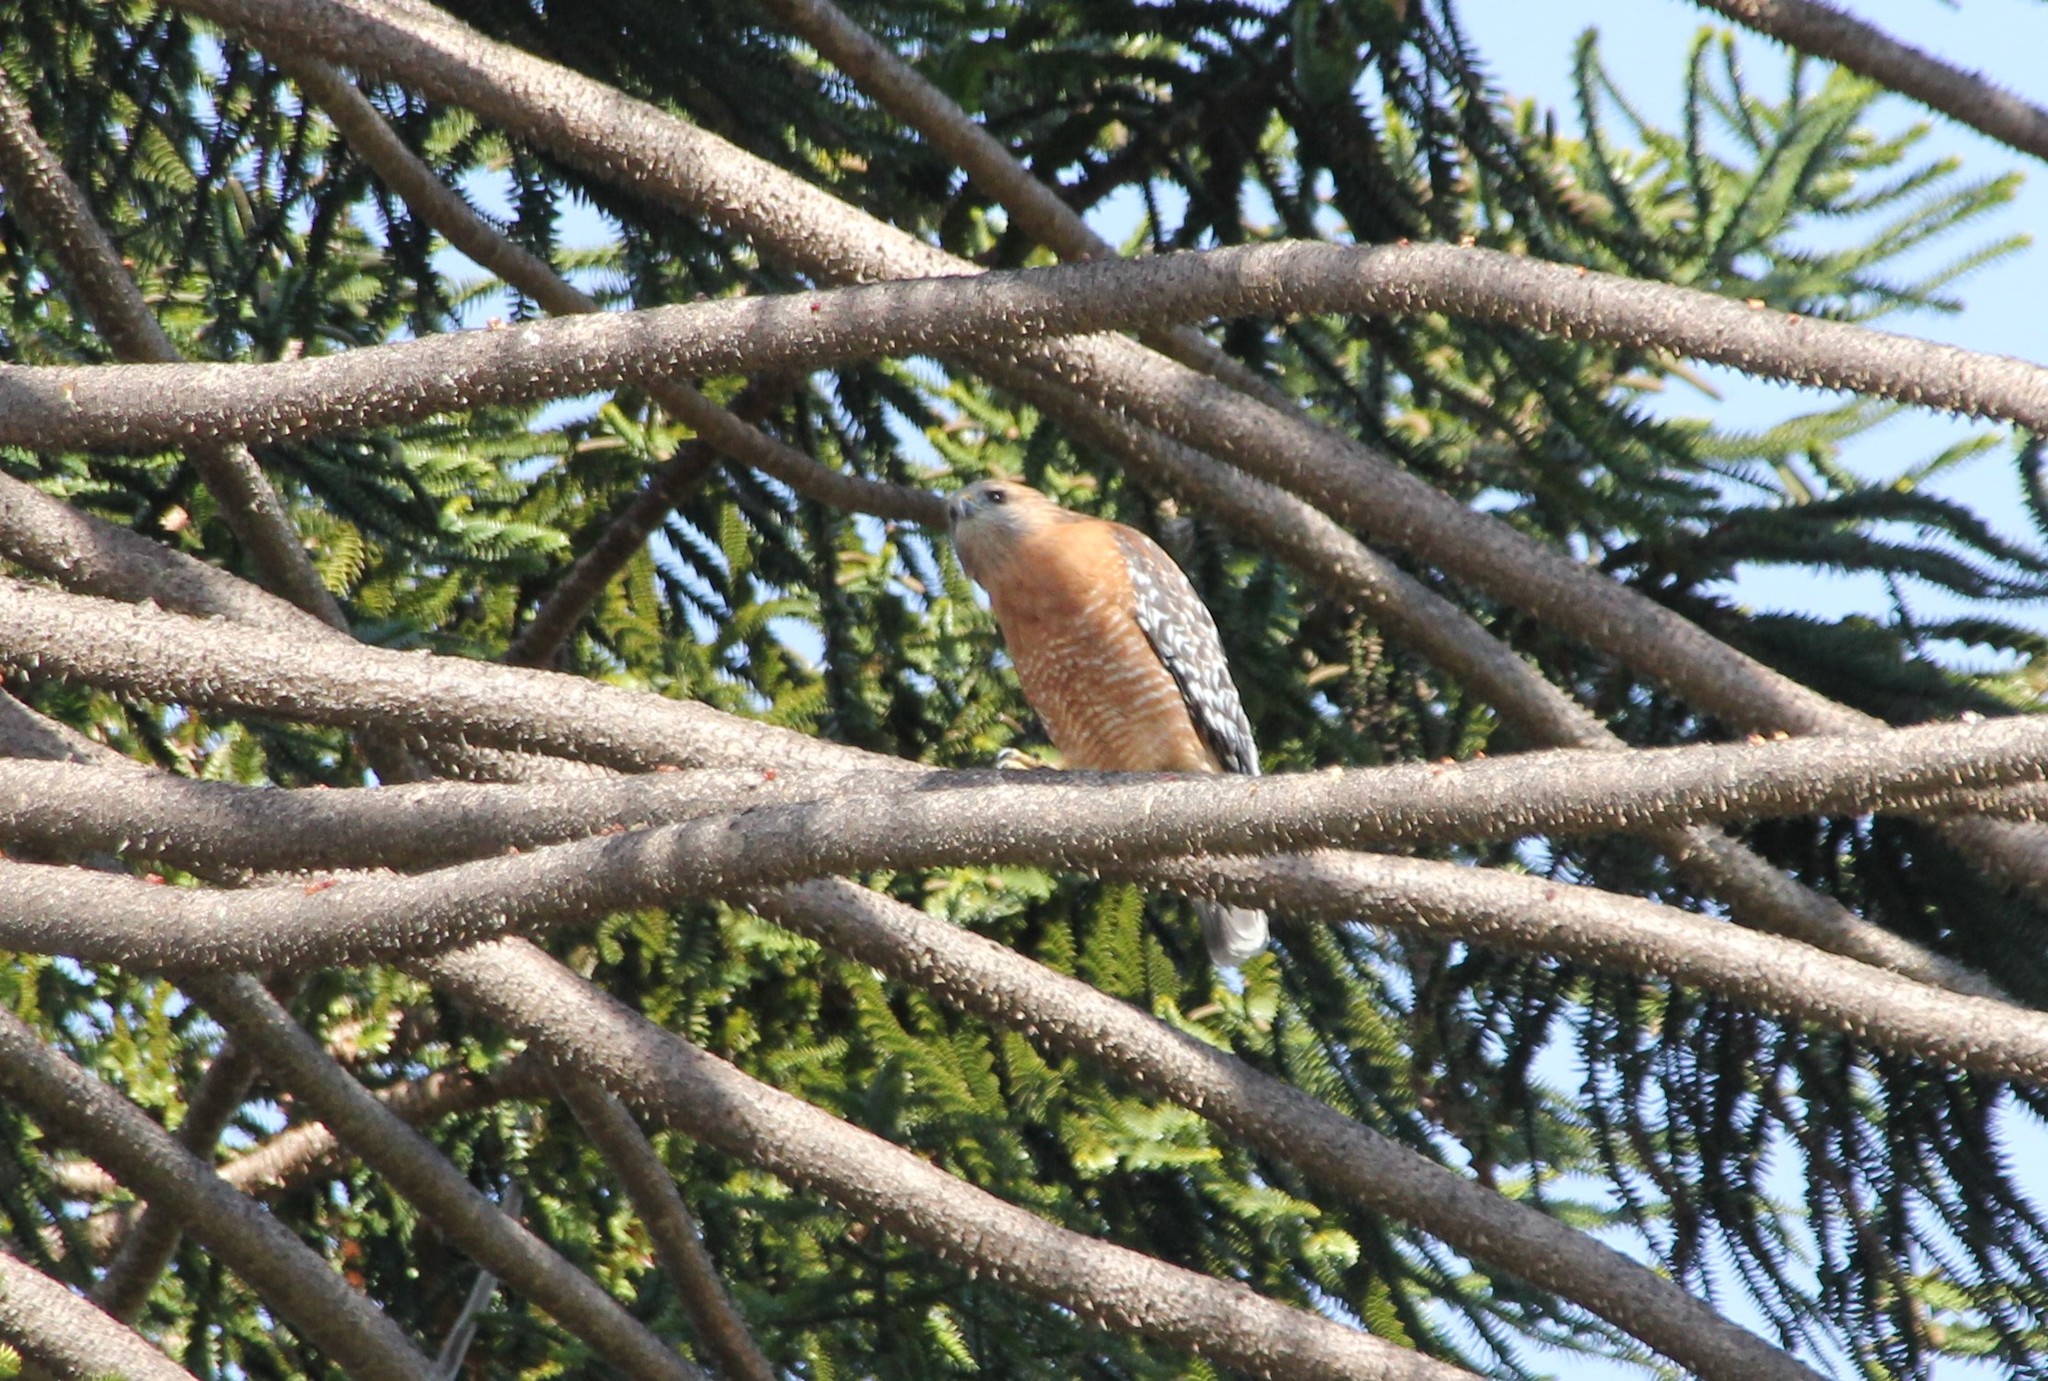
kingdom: Animalia
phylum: Chordata
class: Aves
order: Accipitriformes
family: Accipitridae
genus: Buteo
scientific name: Buteo lineatus
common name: Red-shouldered hawk
